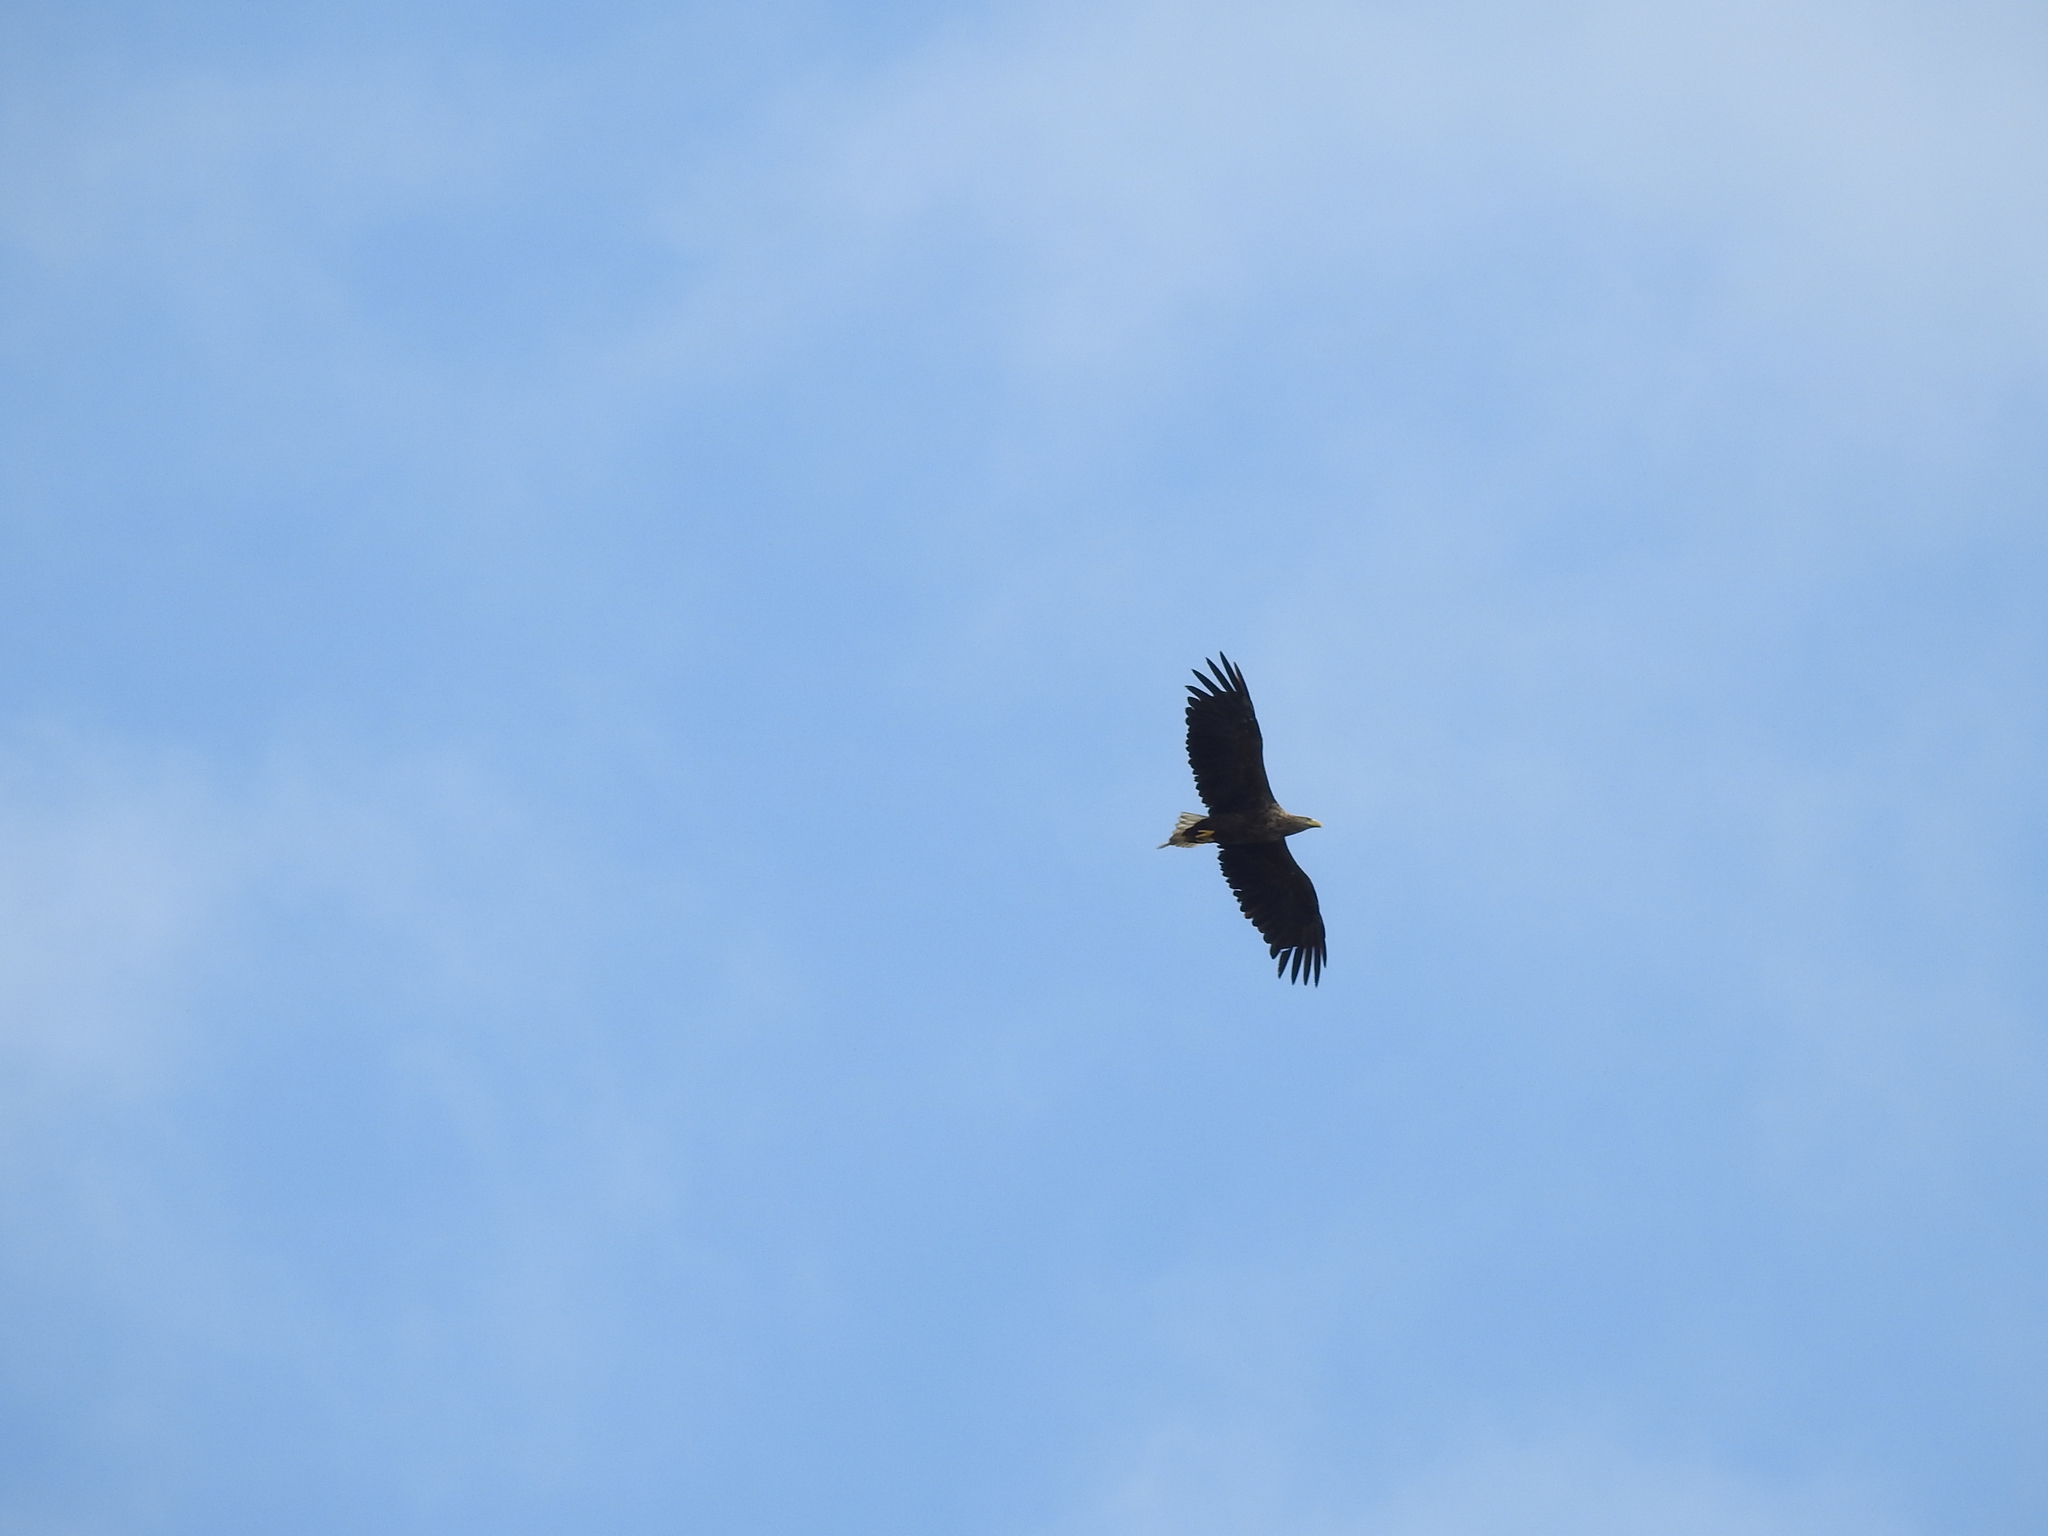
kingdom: Animalia
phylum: Chordata
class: Aves
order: Accipitriformes
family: Accipitridae
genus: Haliaeetus
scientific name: Haliaeetus albicilla
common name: White-tailed eagle
